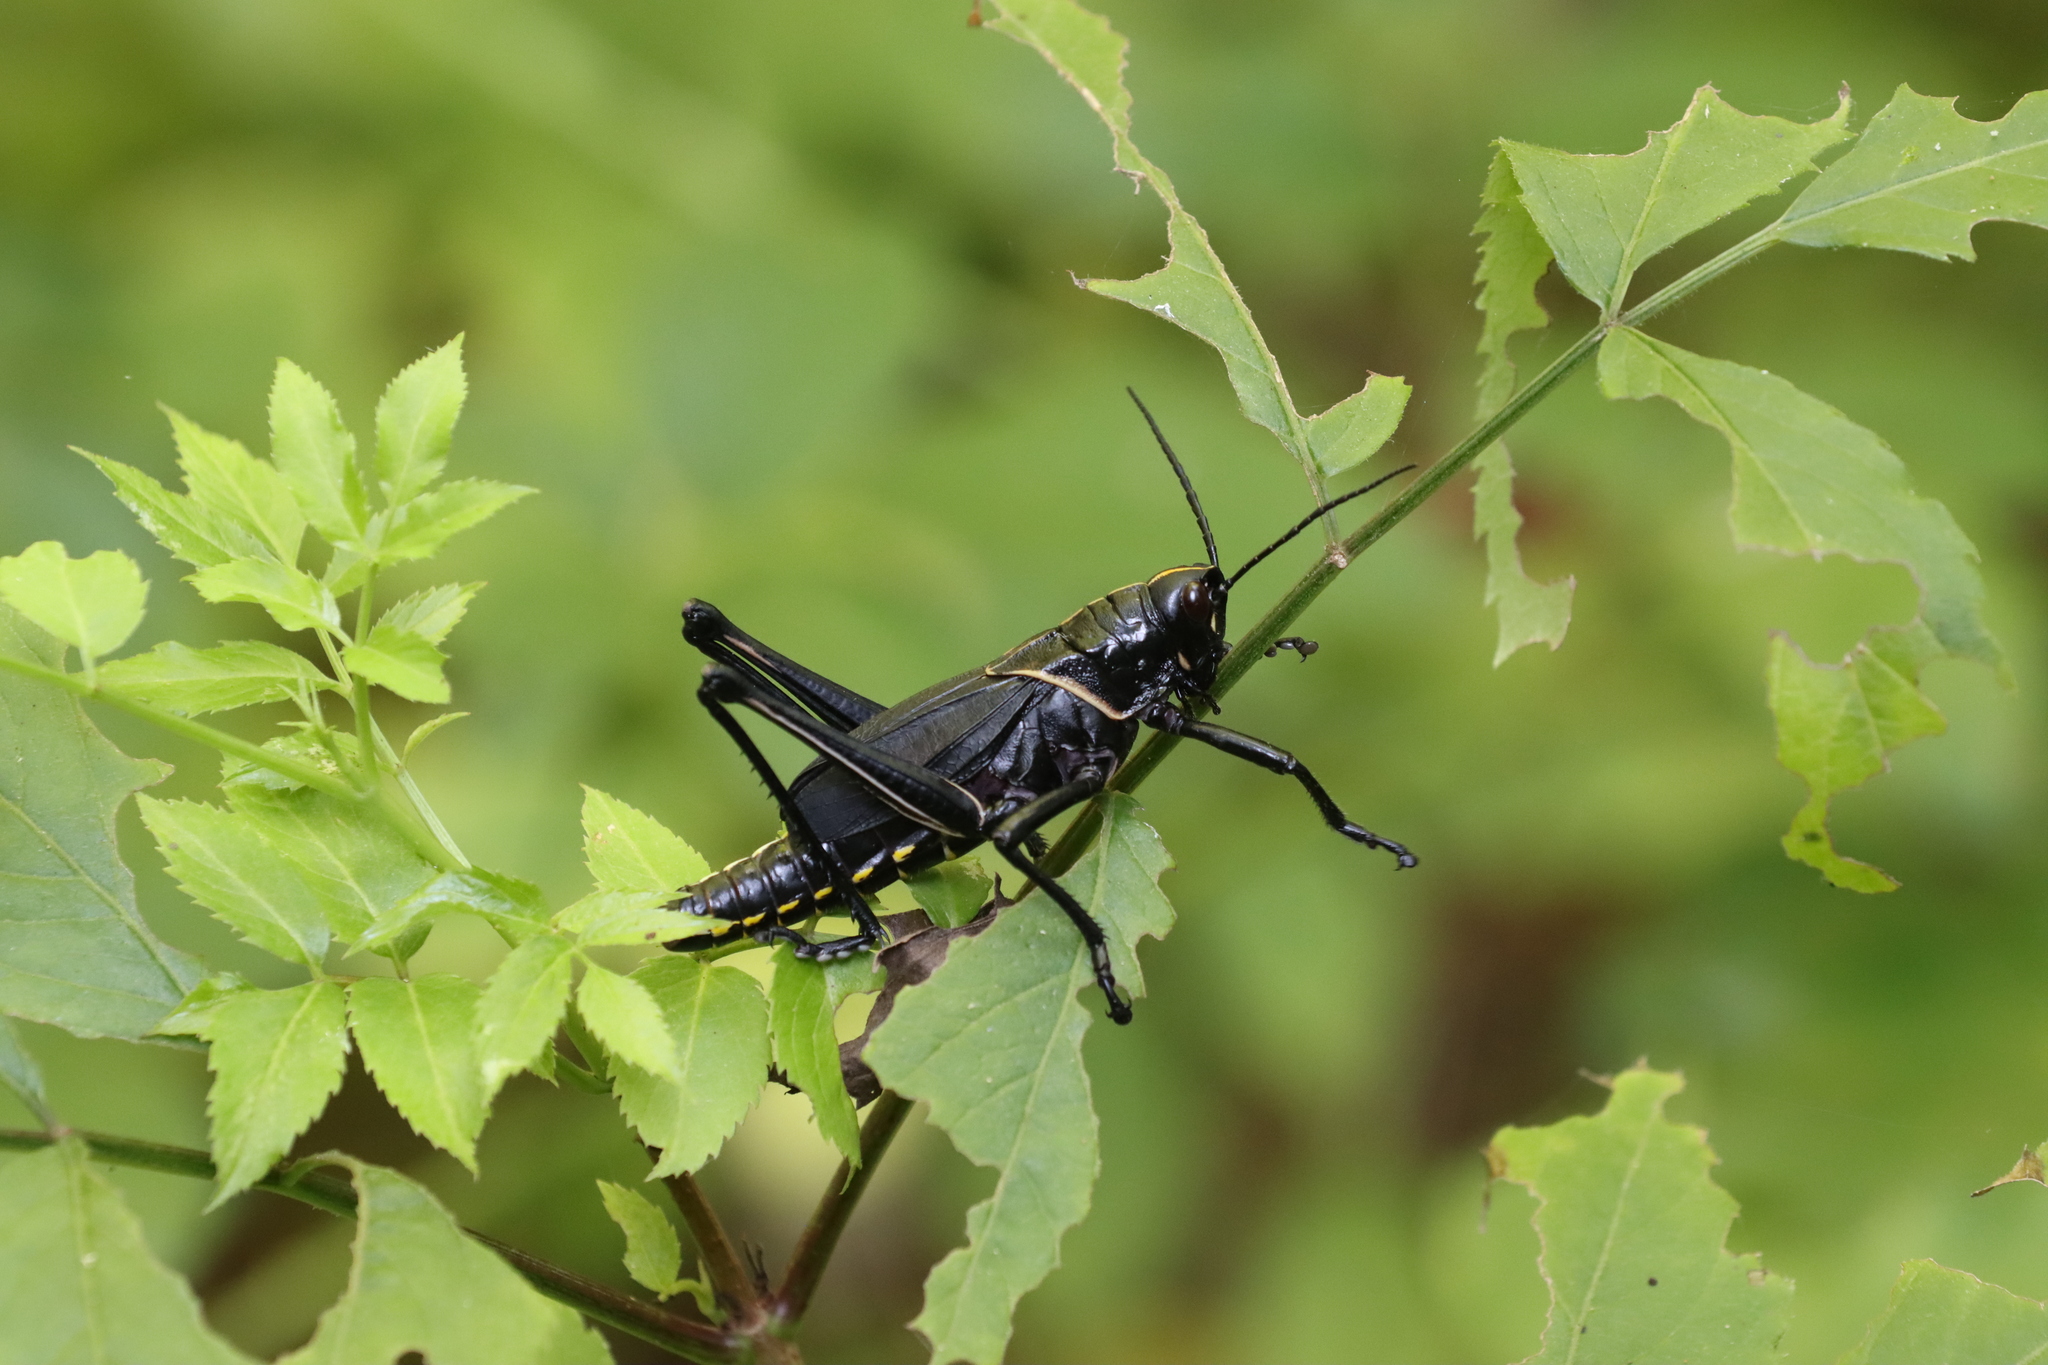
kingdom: Animalia
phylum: Arthropoda
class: Insecta
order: Orthoptera
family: Romaleidae
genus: Romalea
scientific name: Romalea microptera
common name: Eastern lubber grasshopper
